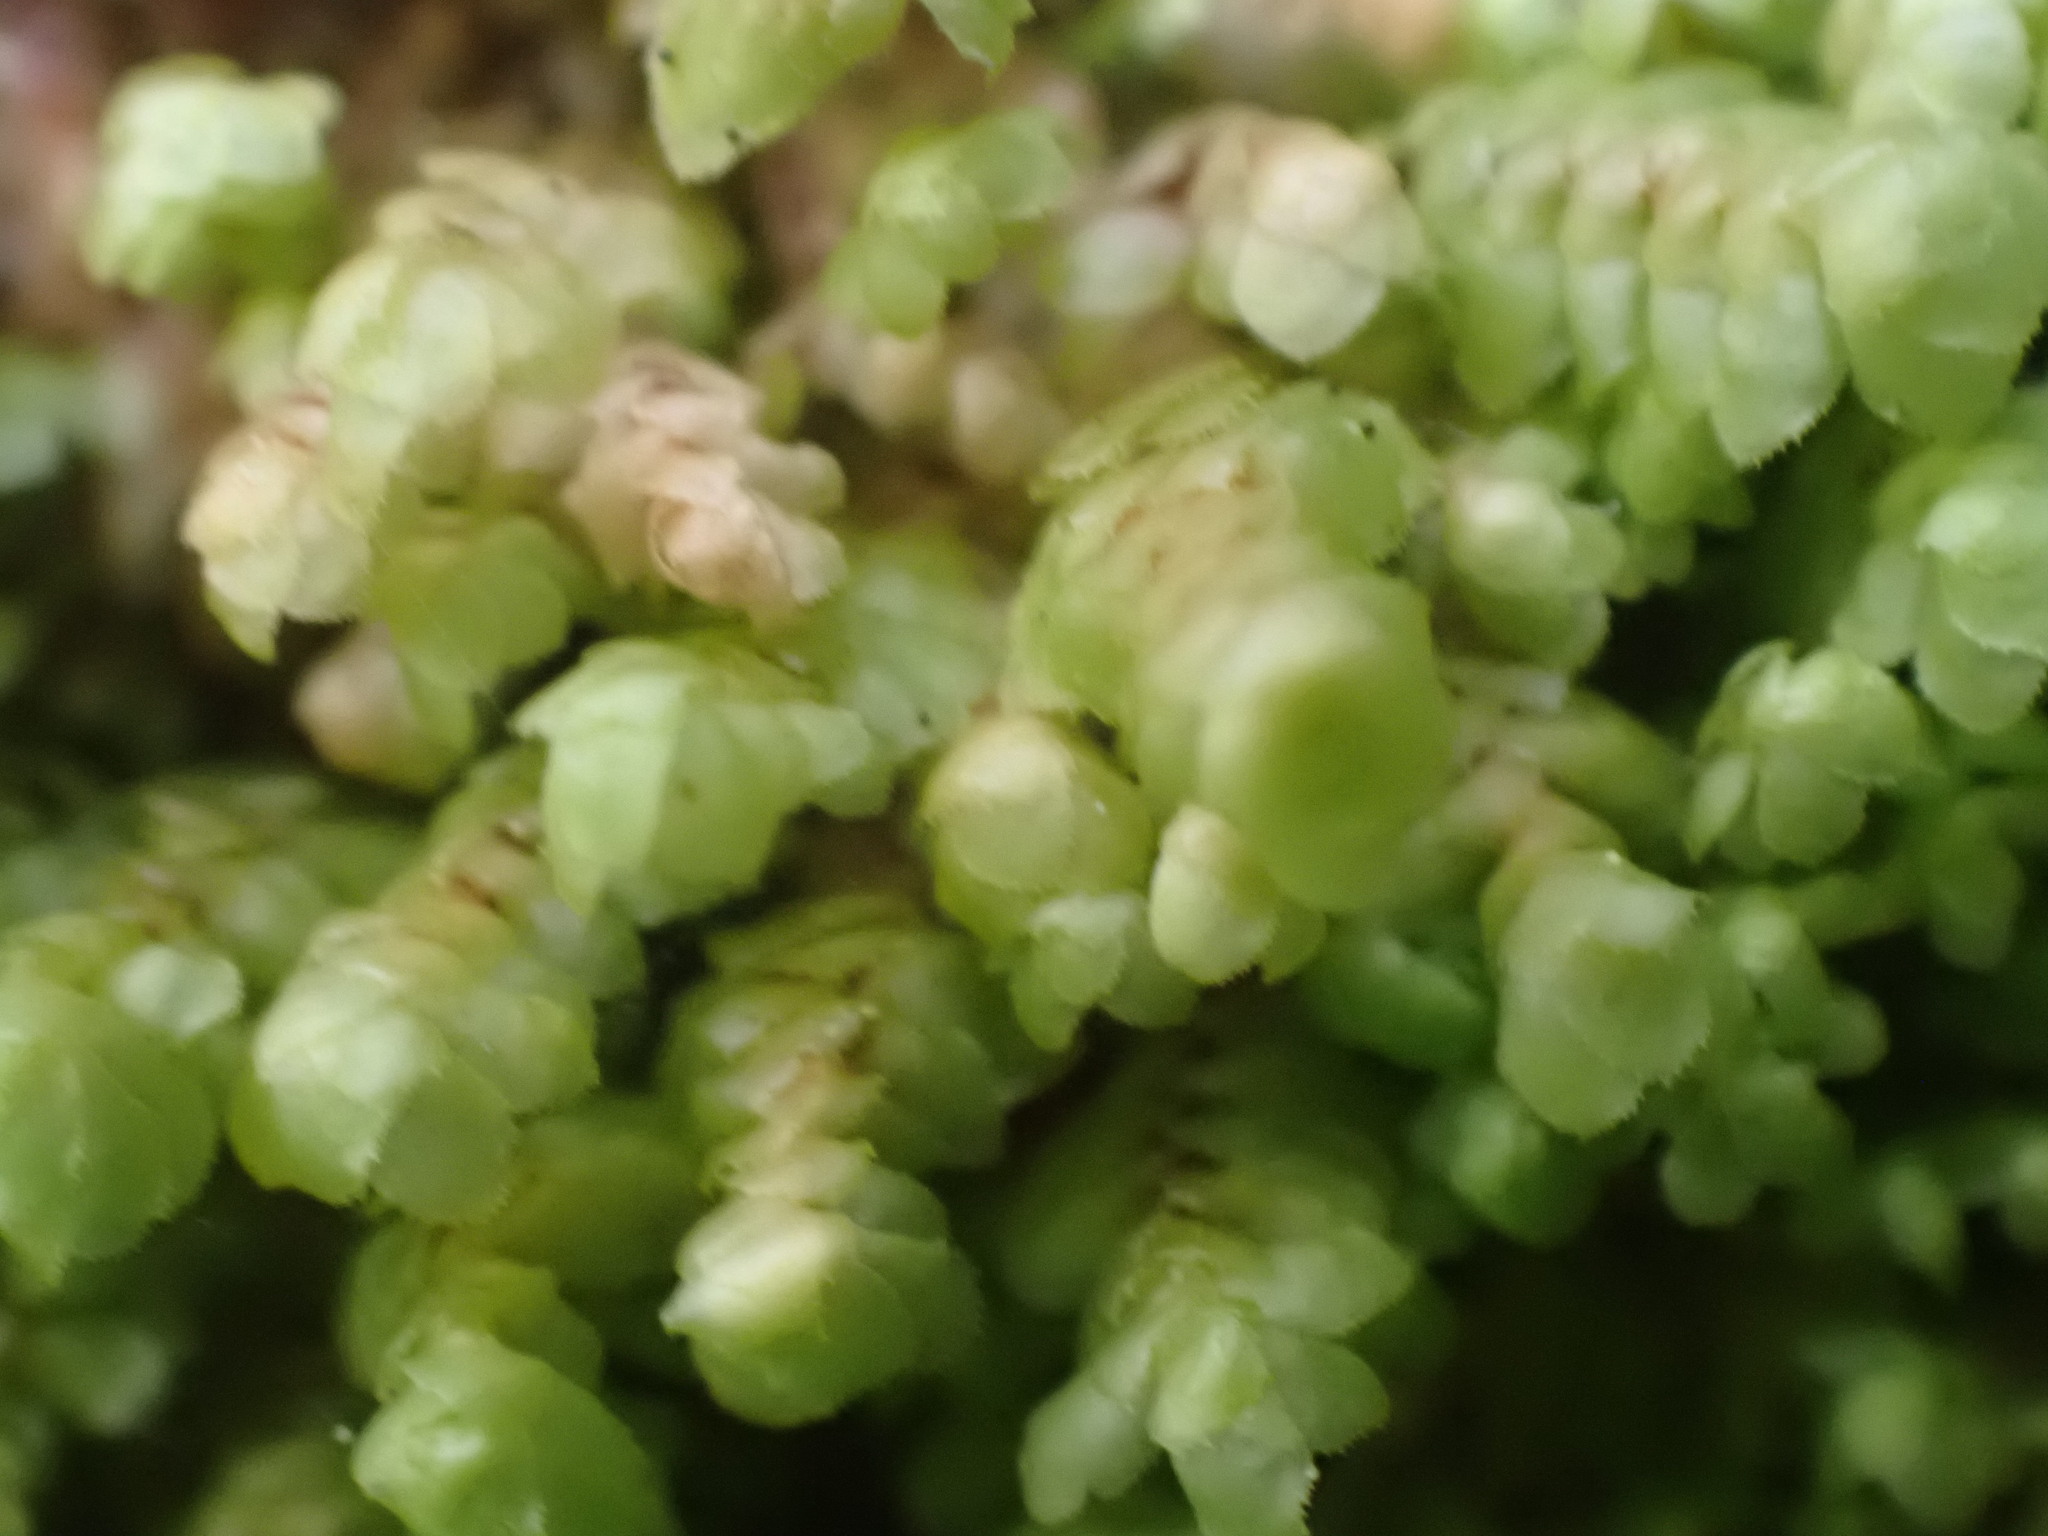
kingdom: Plantae
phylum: Marchantiophyta
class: Jungermanniopsida
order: Jungermanniales
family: Scapaniaceae
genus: Scapania
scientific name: Scapania bolanderi
